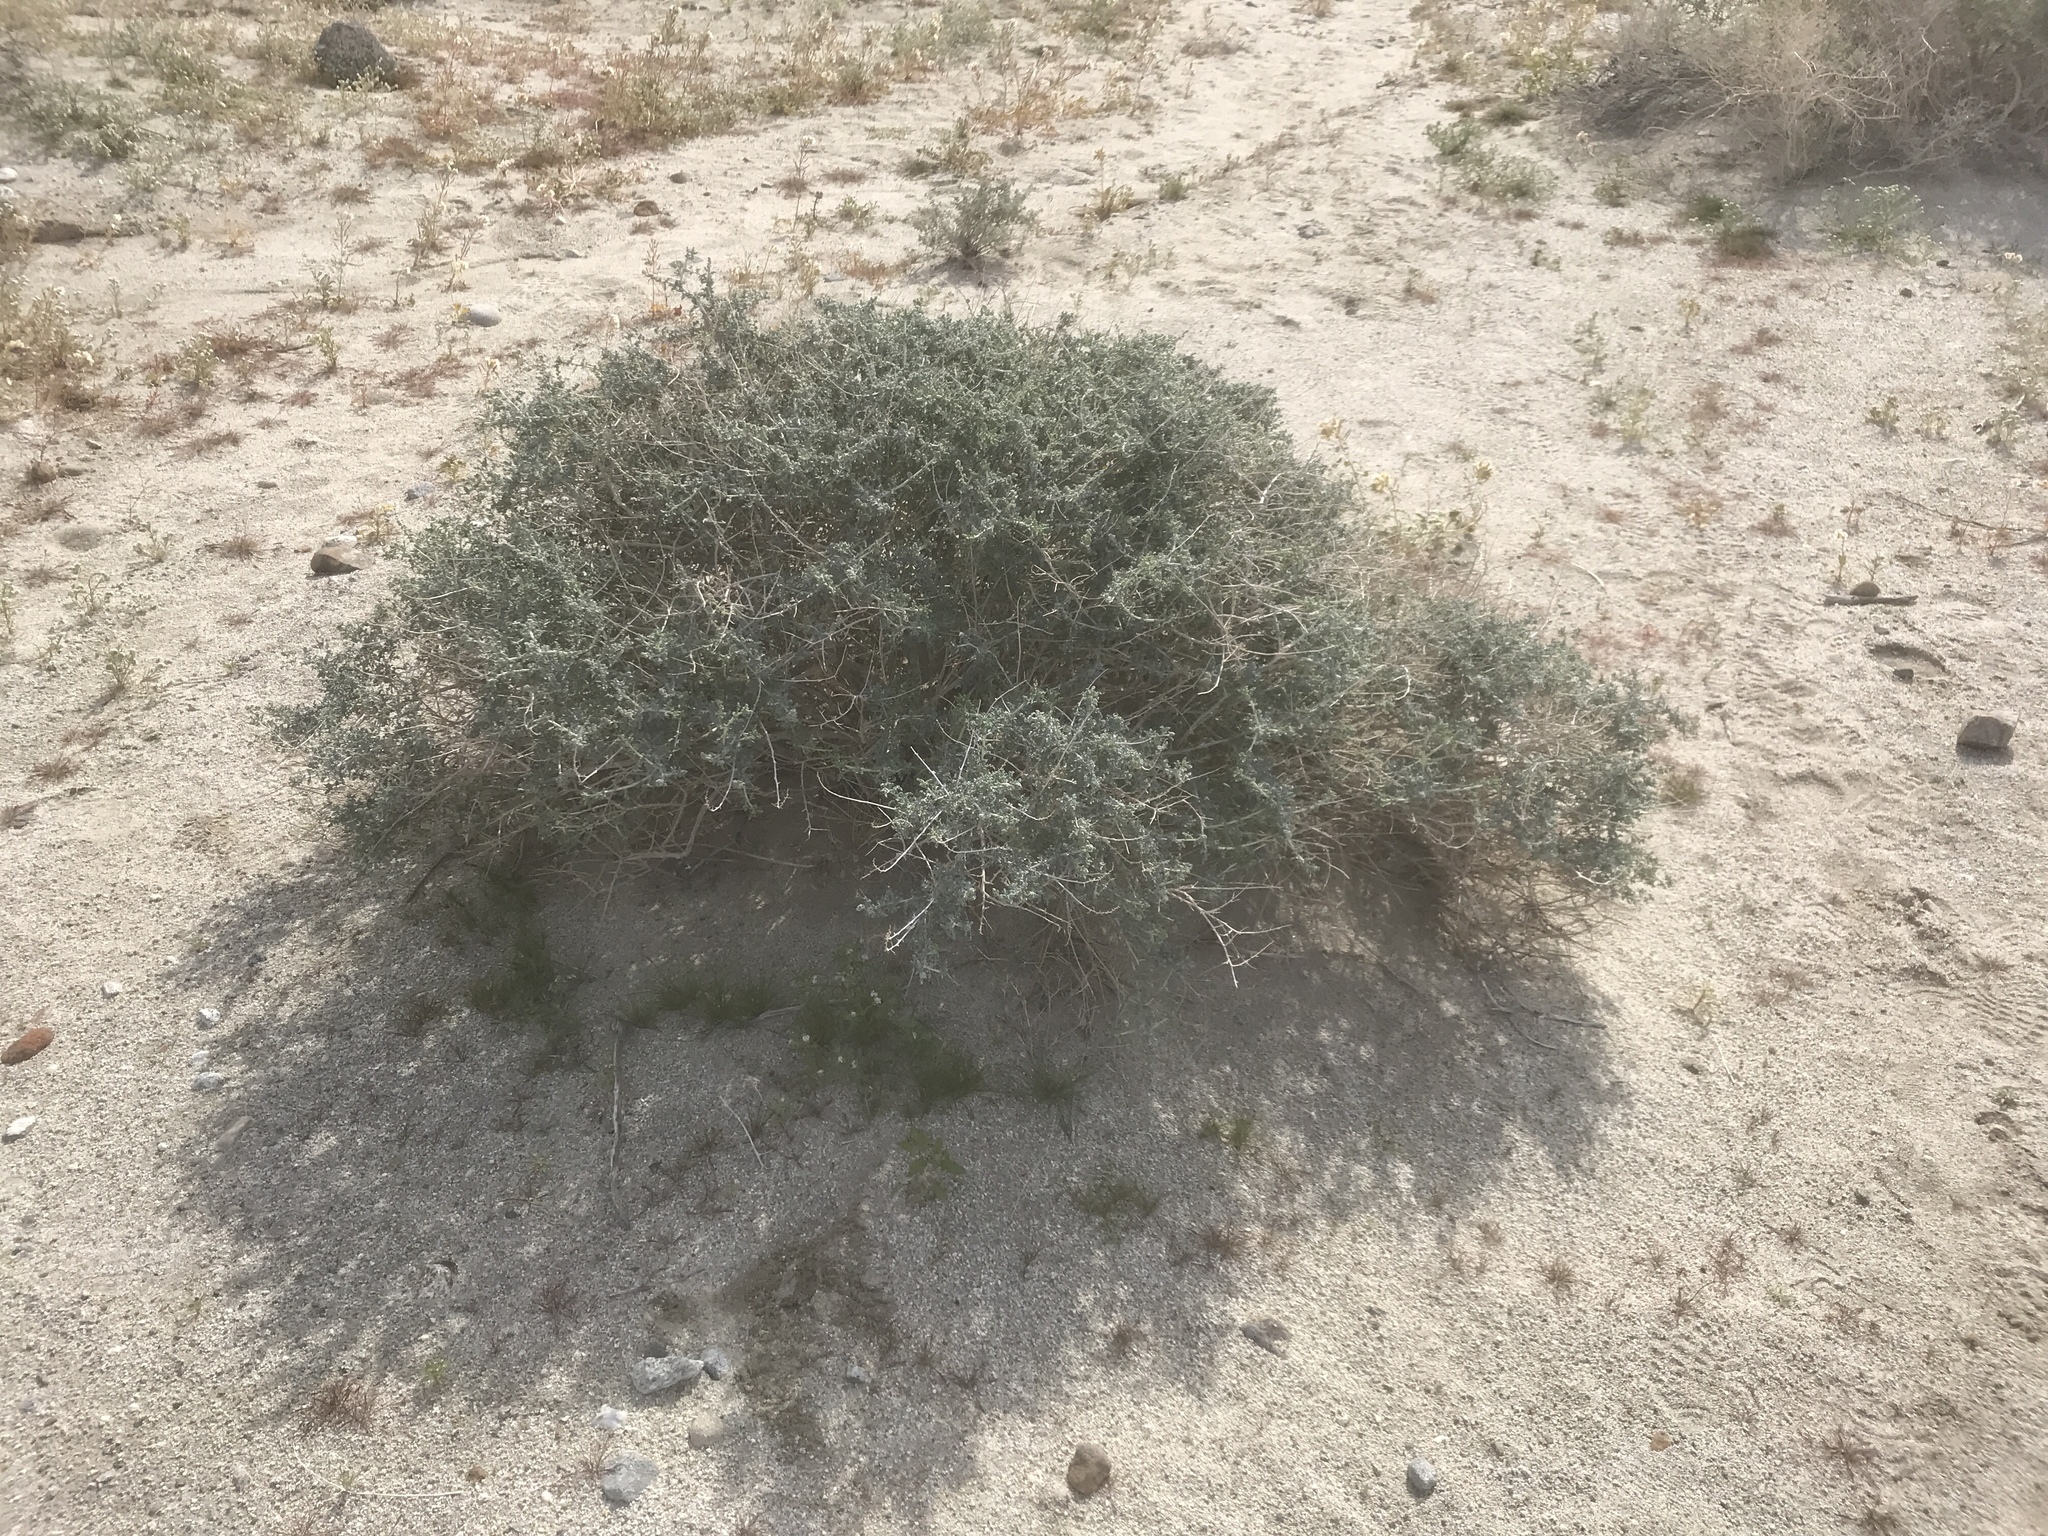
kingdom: Plantae
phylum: Tracheophyta
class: Magnoliopsida
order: Asterales
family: Asteraceae
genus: Ambrosia
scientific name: Ambrosia dumosa
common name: Bur-sage
